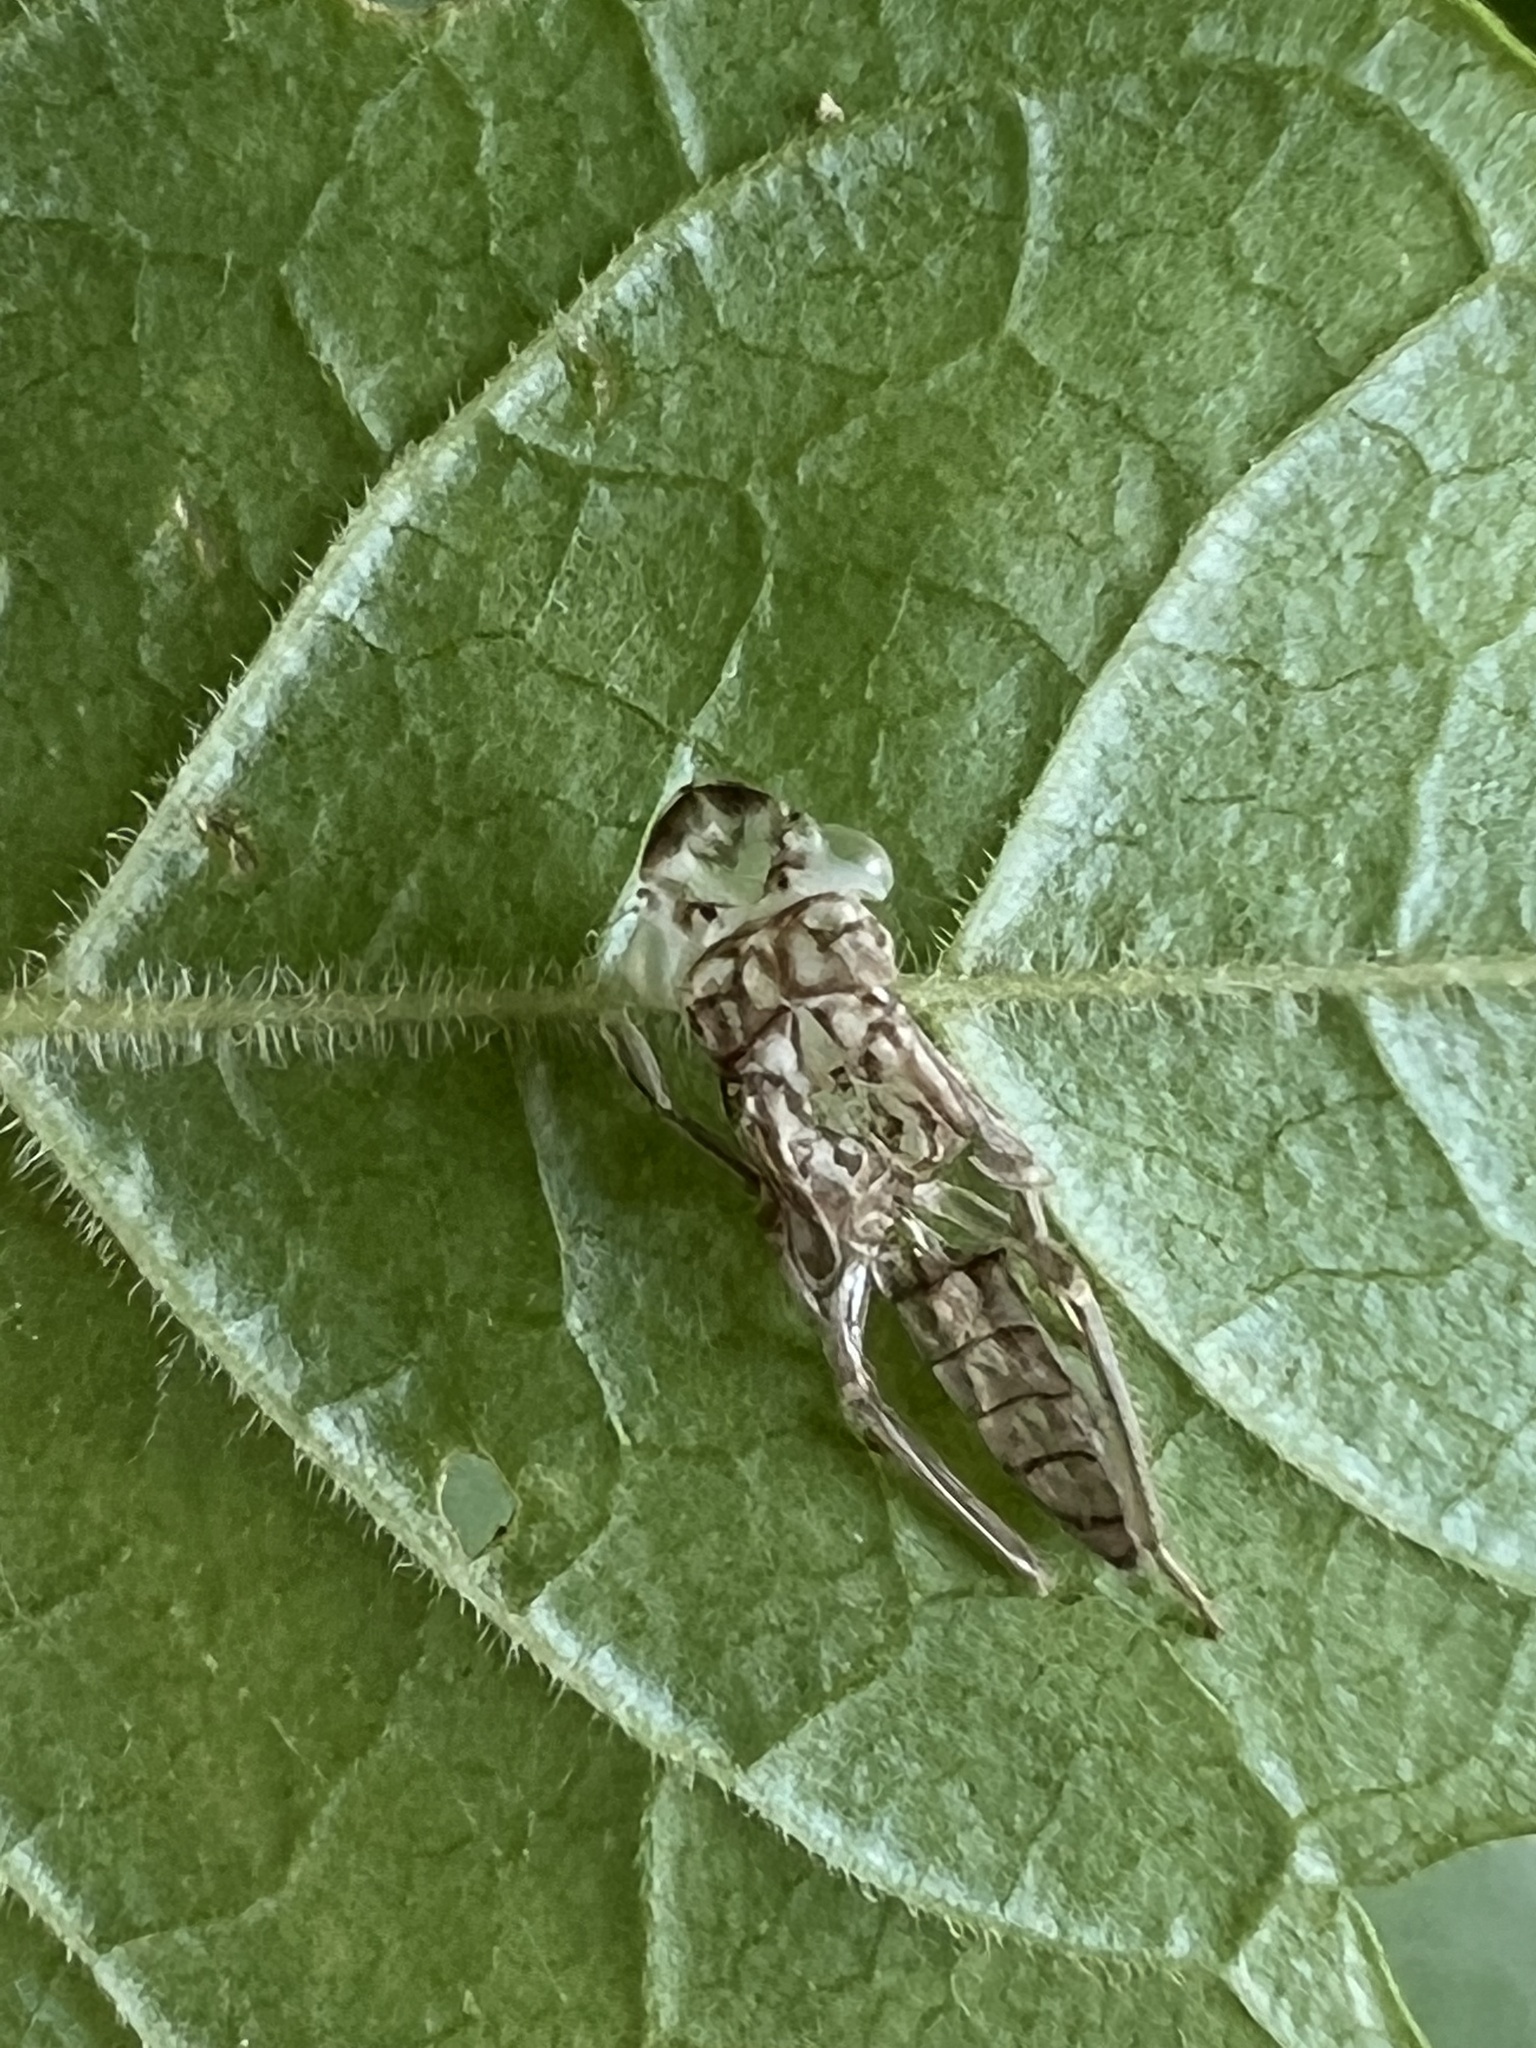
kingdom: Animalia
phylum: Arthropoda
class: Insecta
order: Hemiptera
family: Cicadellidae
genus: Oncometopia
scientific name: Oncometopia orbona
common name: Broad-headed sharpshooter
